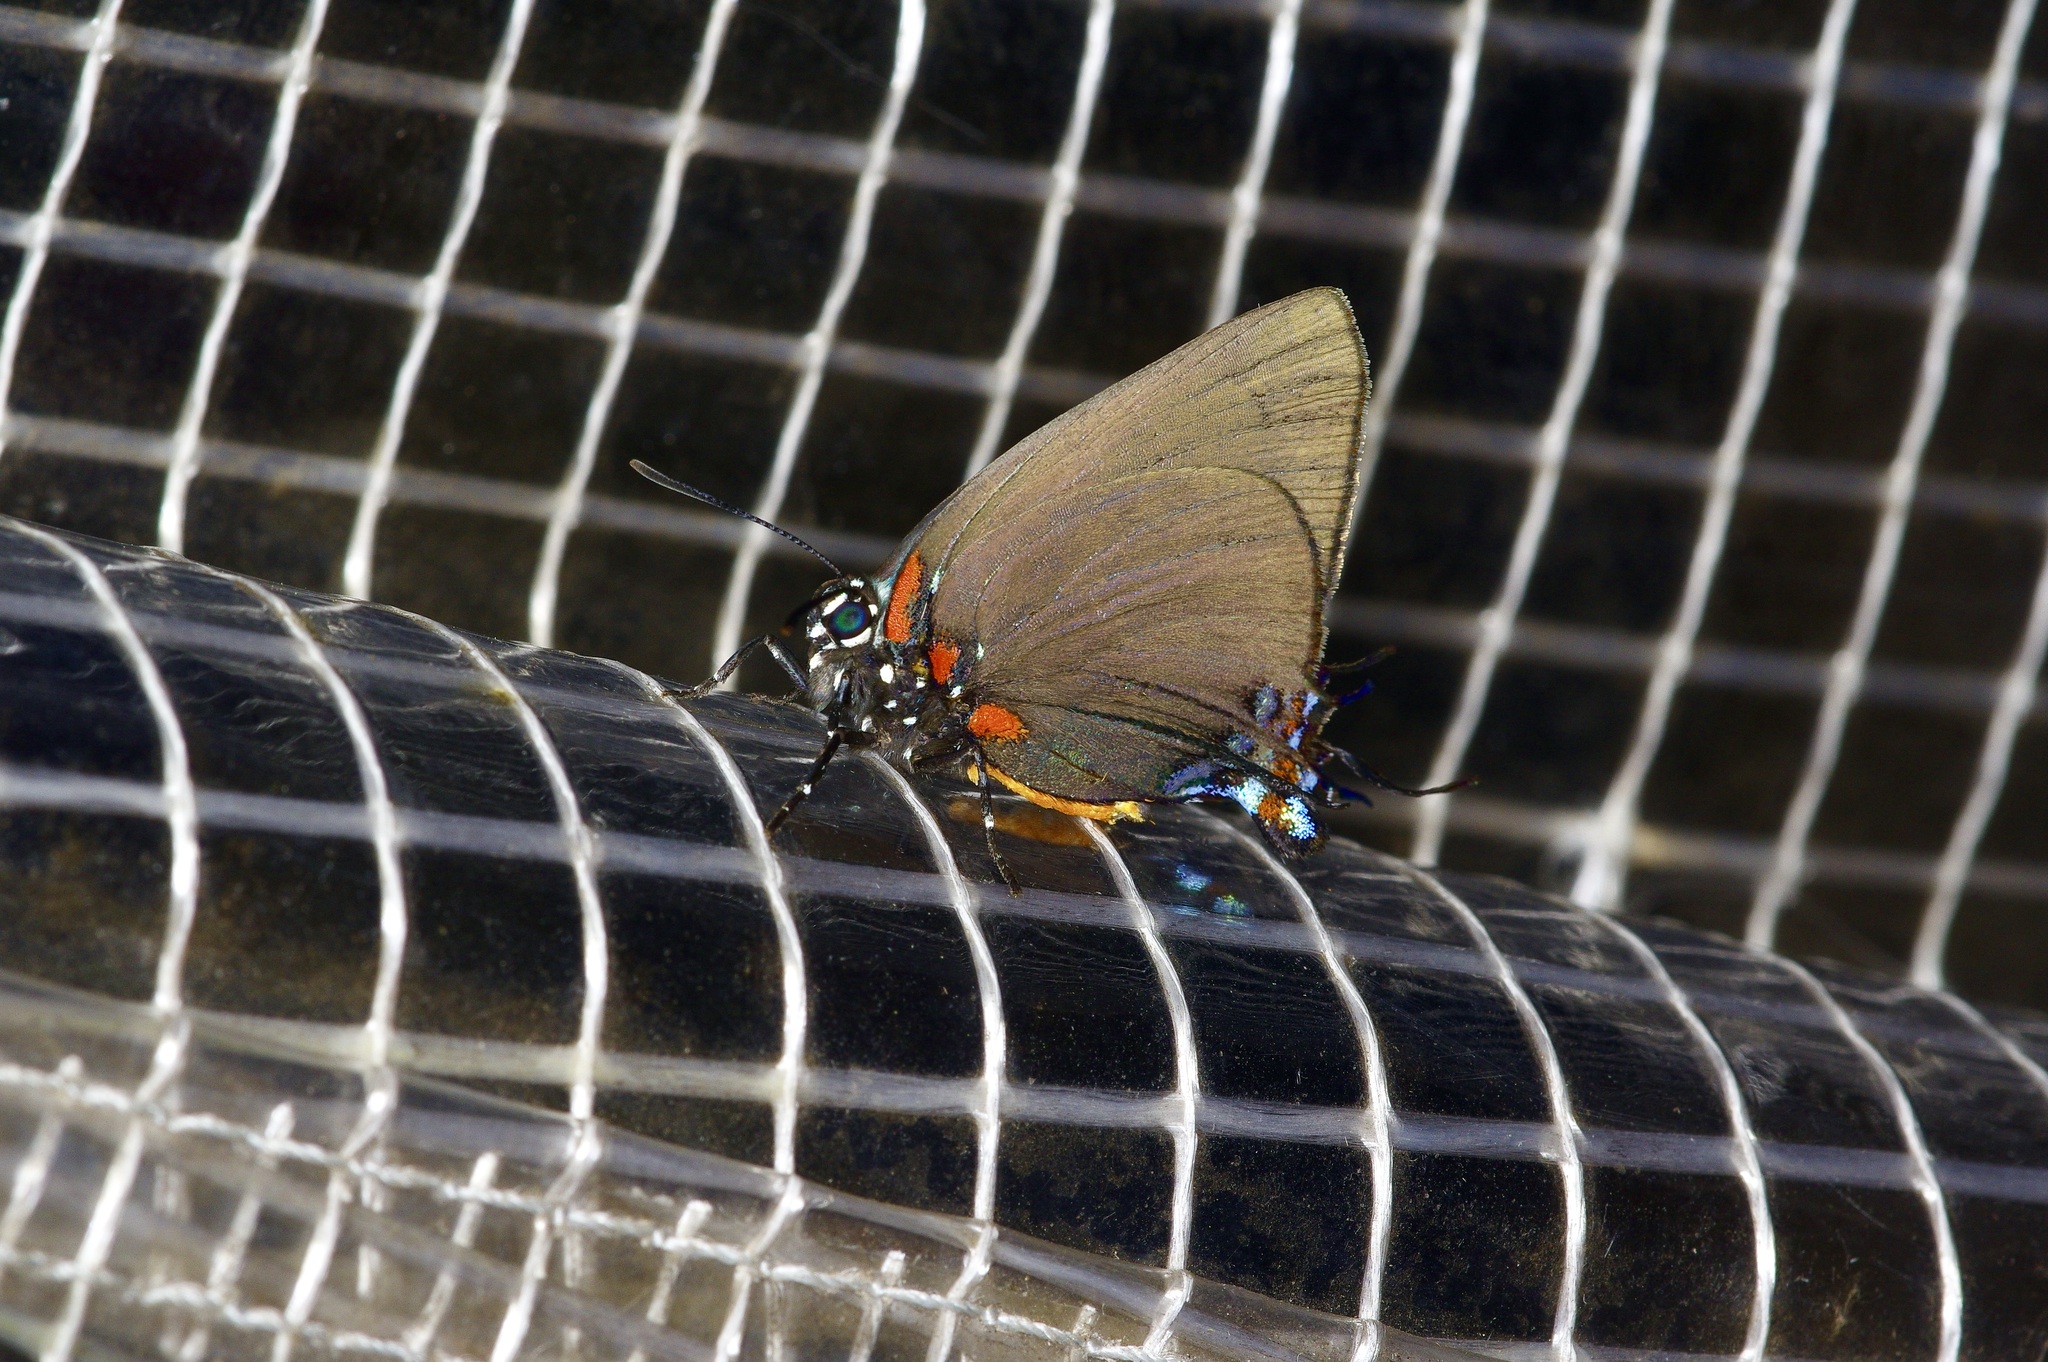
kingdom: Animalia
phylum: Arthropoda
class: Insecta
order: Lepidoptera
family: Lycaenidae
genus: Atlides
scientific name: Atlides halesus
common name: Great purple hairstreak
